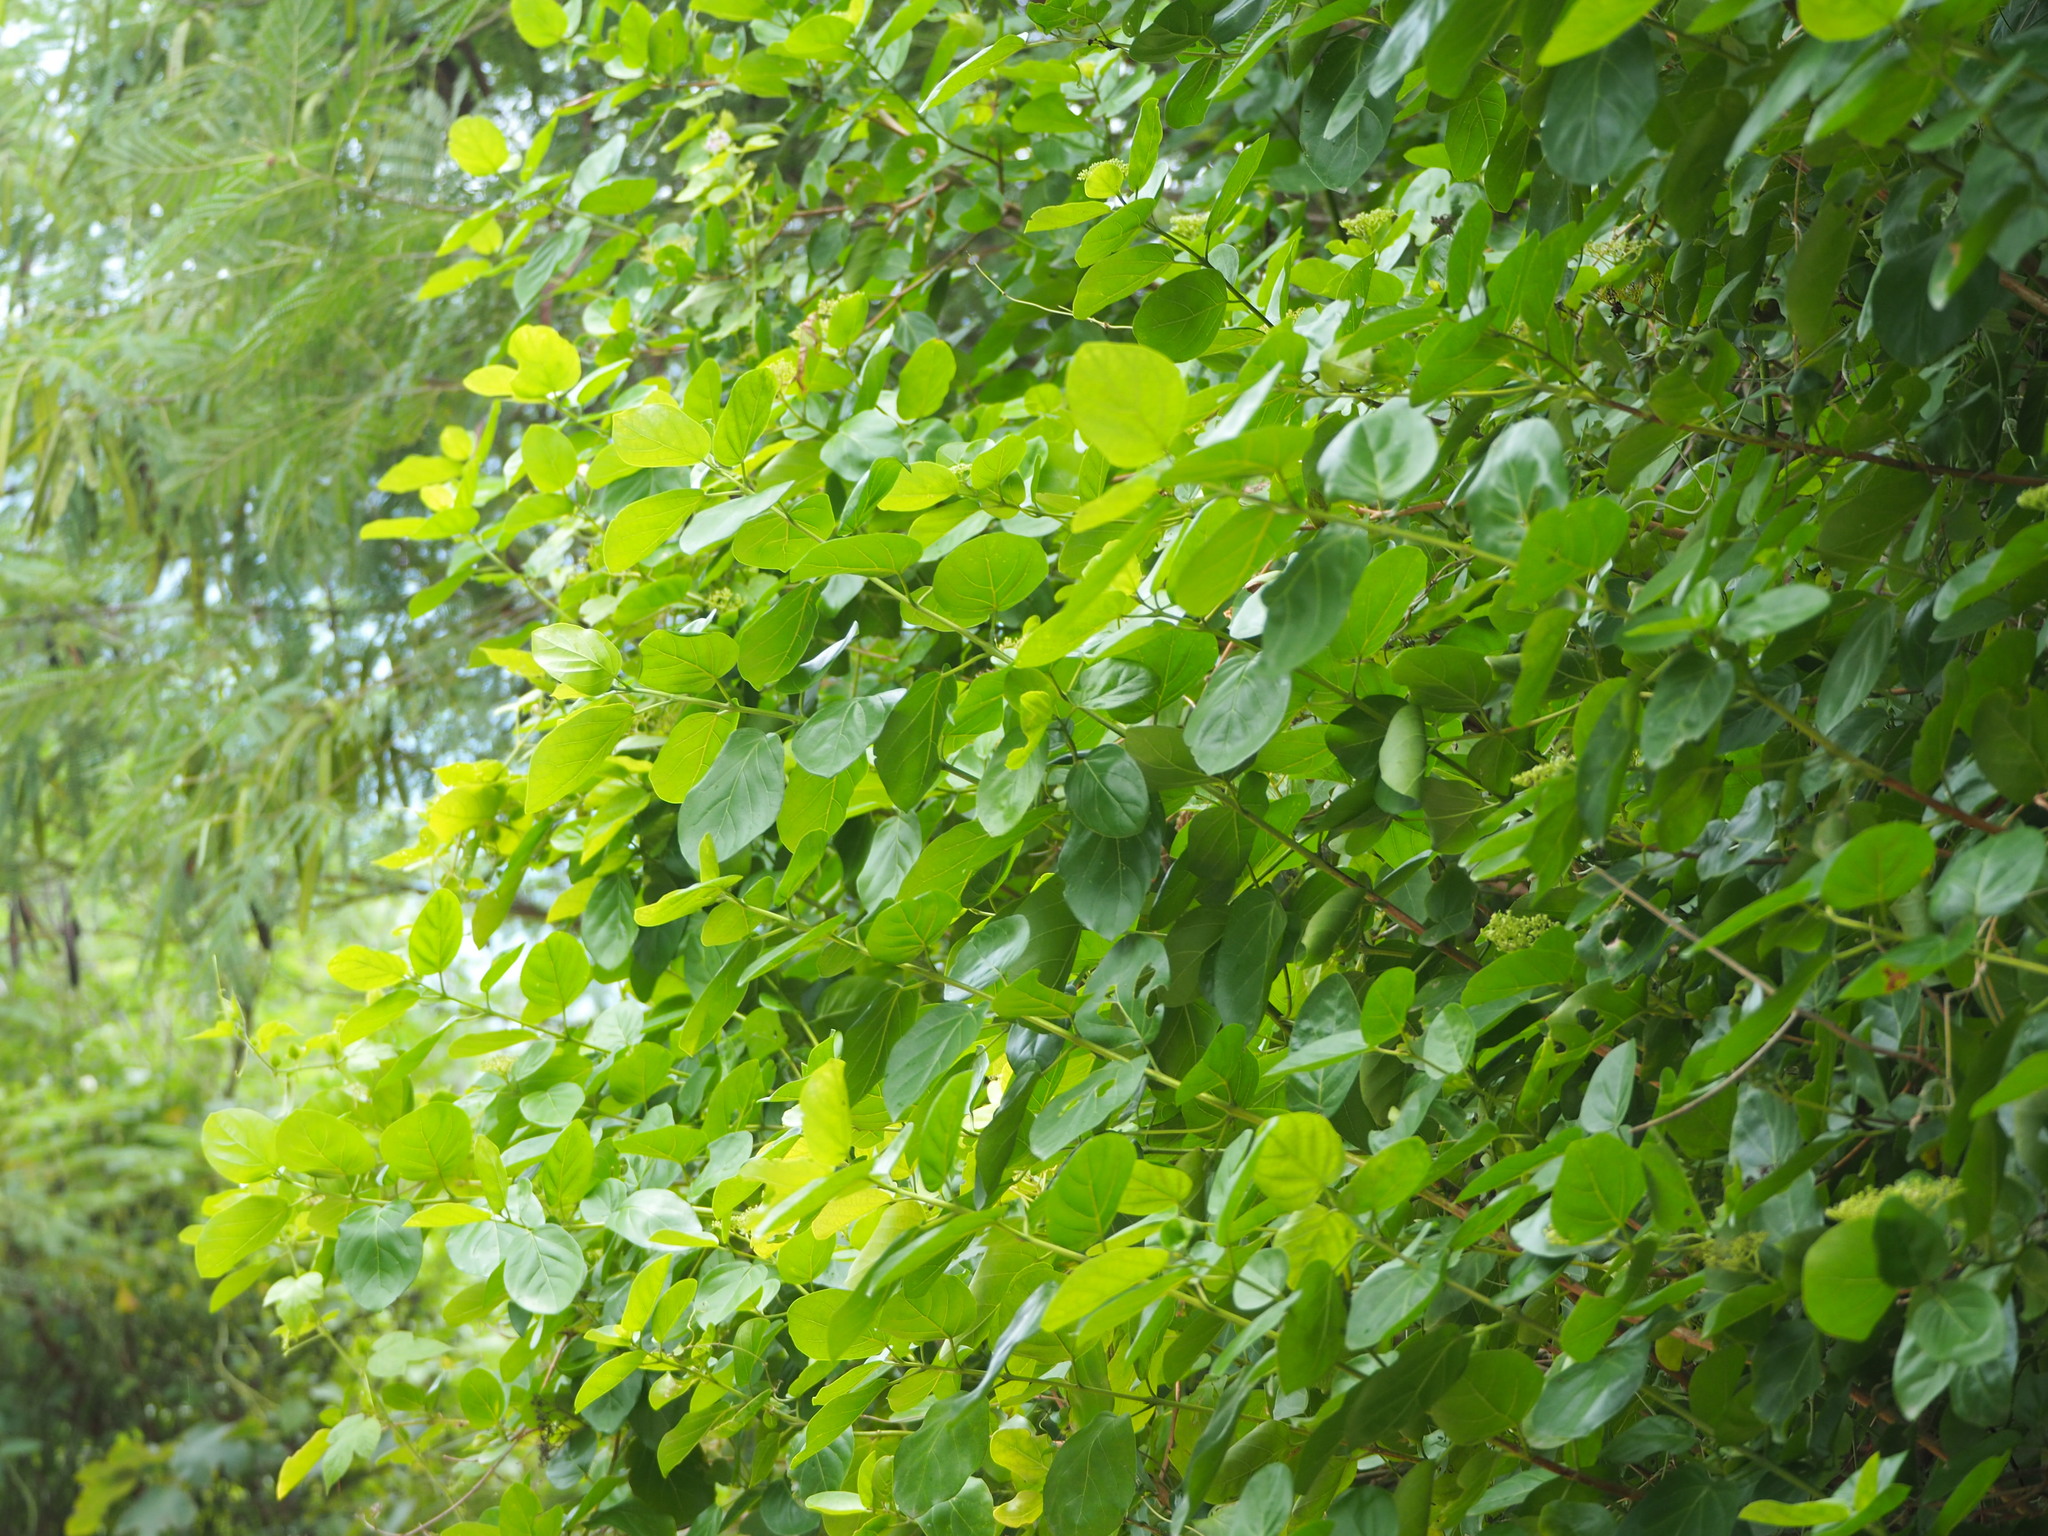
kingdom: Plantae
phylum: Tracheophyta
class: Magnoliopsida
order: Lamiales
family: Lamiaceae
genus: Premna
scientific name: Premna serratifolia
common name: Bastard guelder
